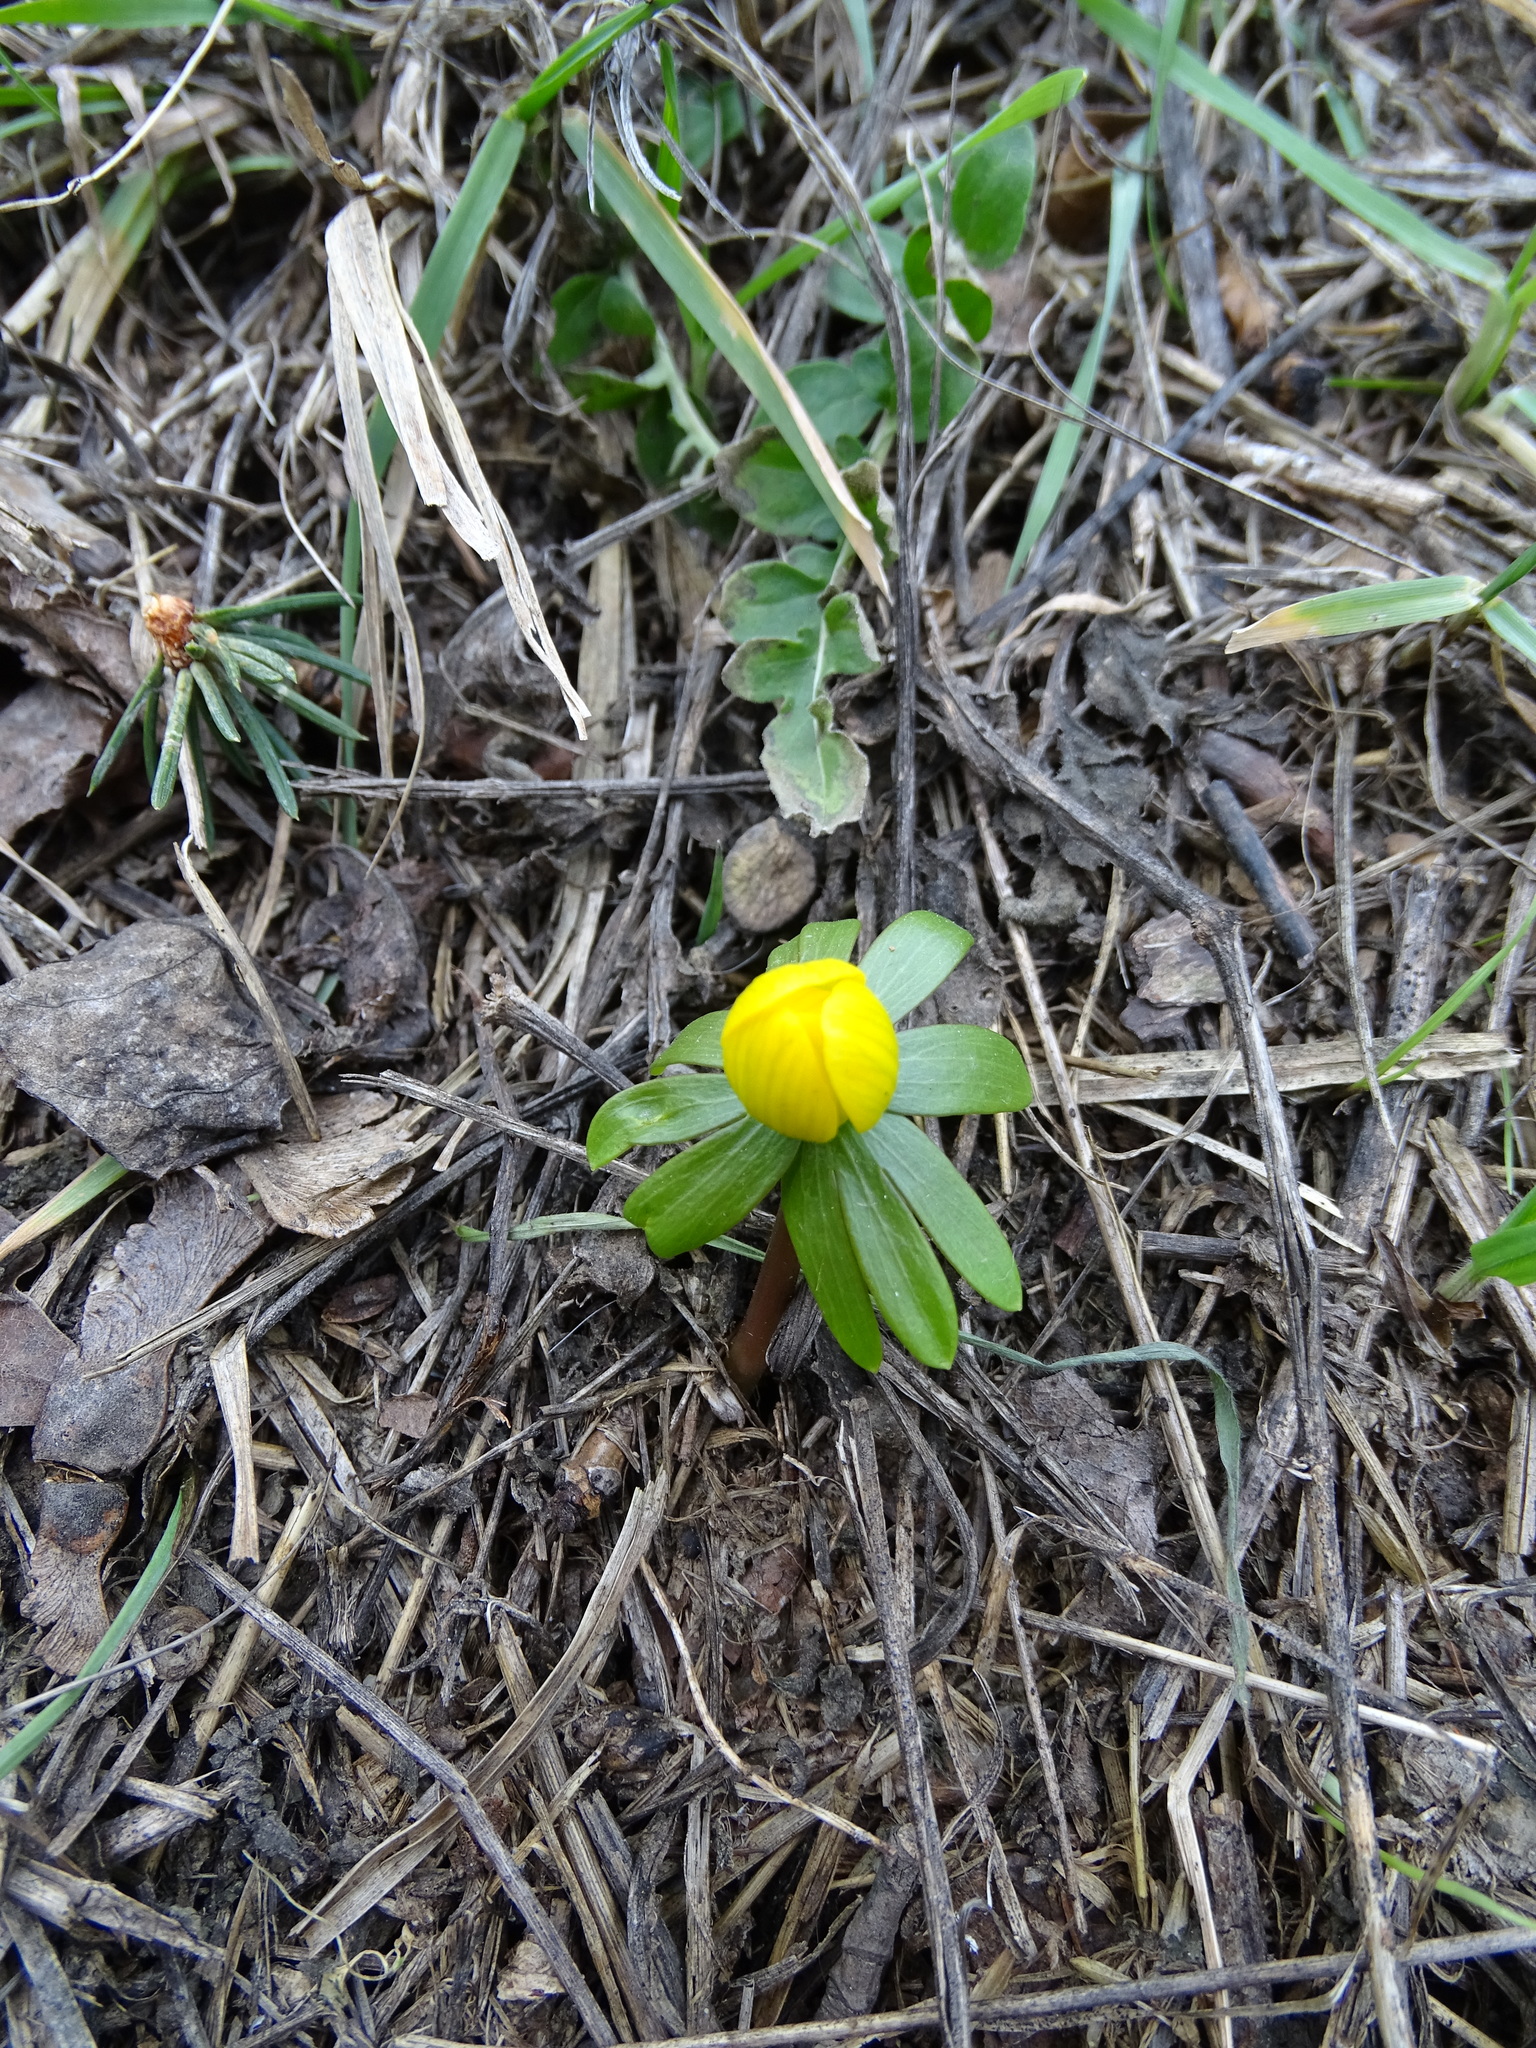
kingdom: Plantae
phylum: Tracheophyta
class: Magnoliopsida
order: Ranunculales
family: Ranunculaceae
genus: Eranthis
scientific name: Eranthis hyemalis
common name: Winter aconite
